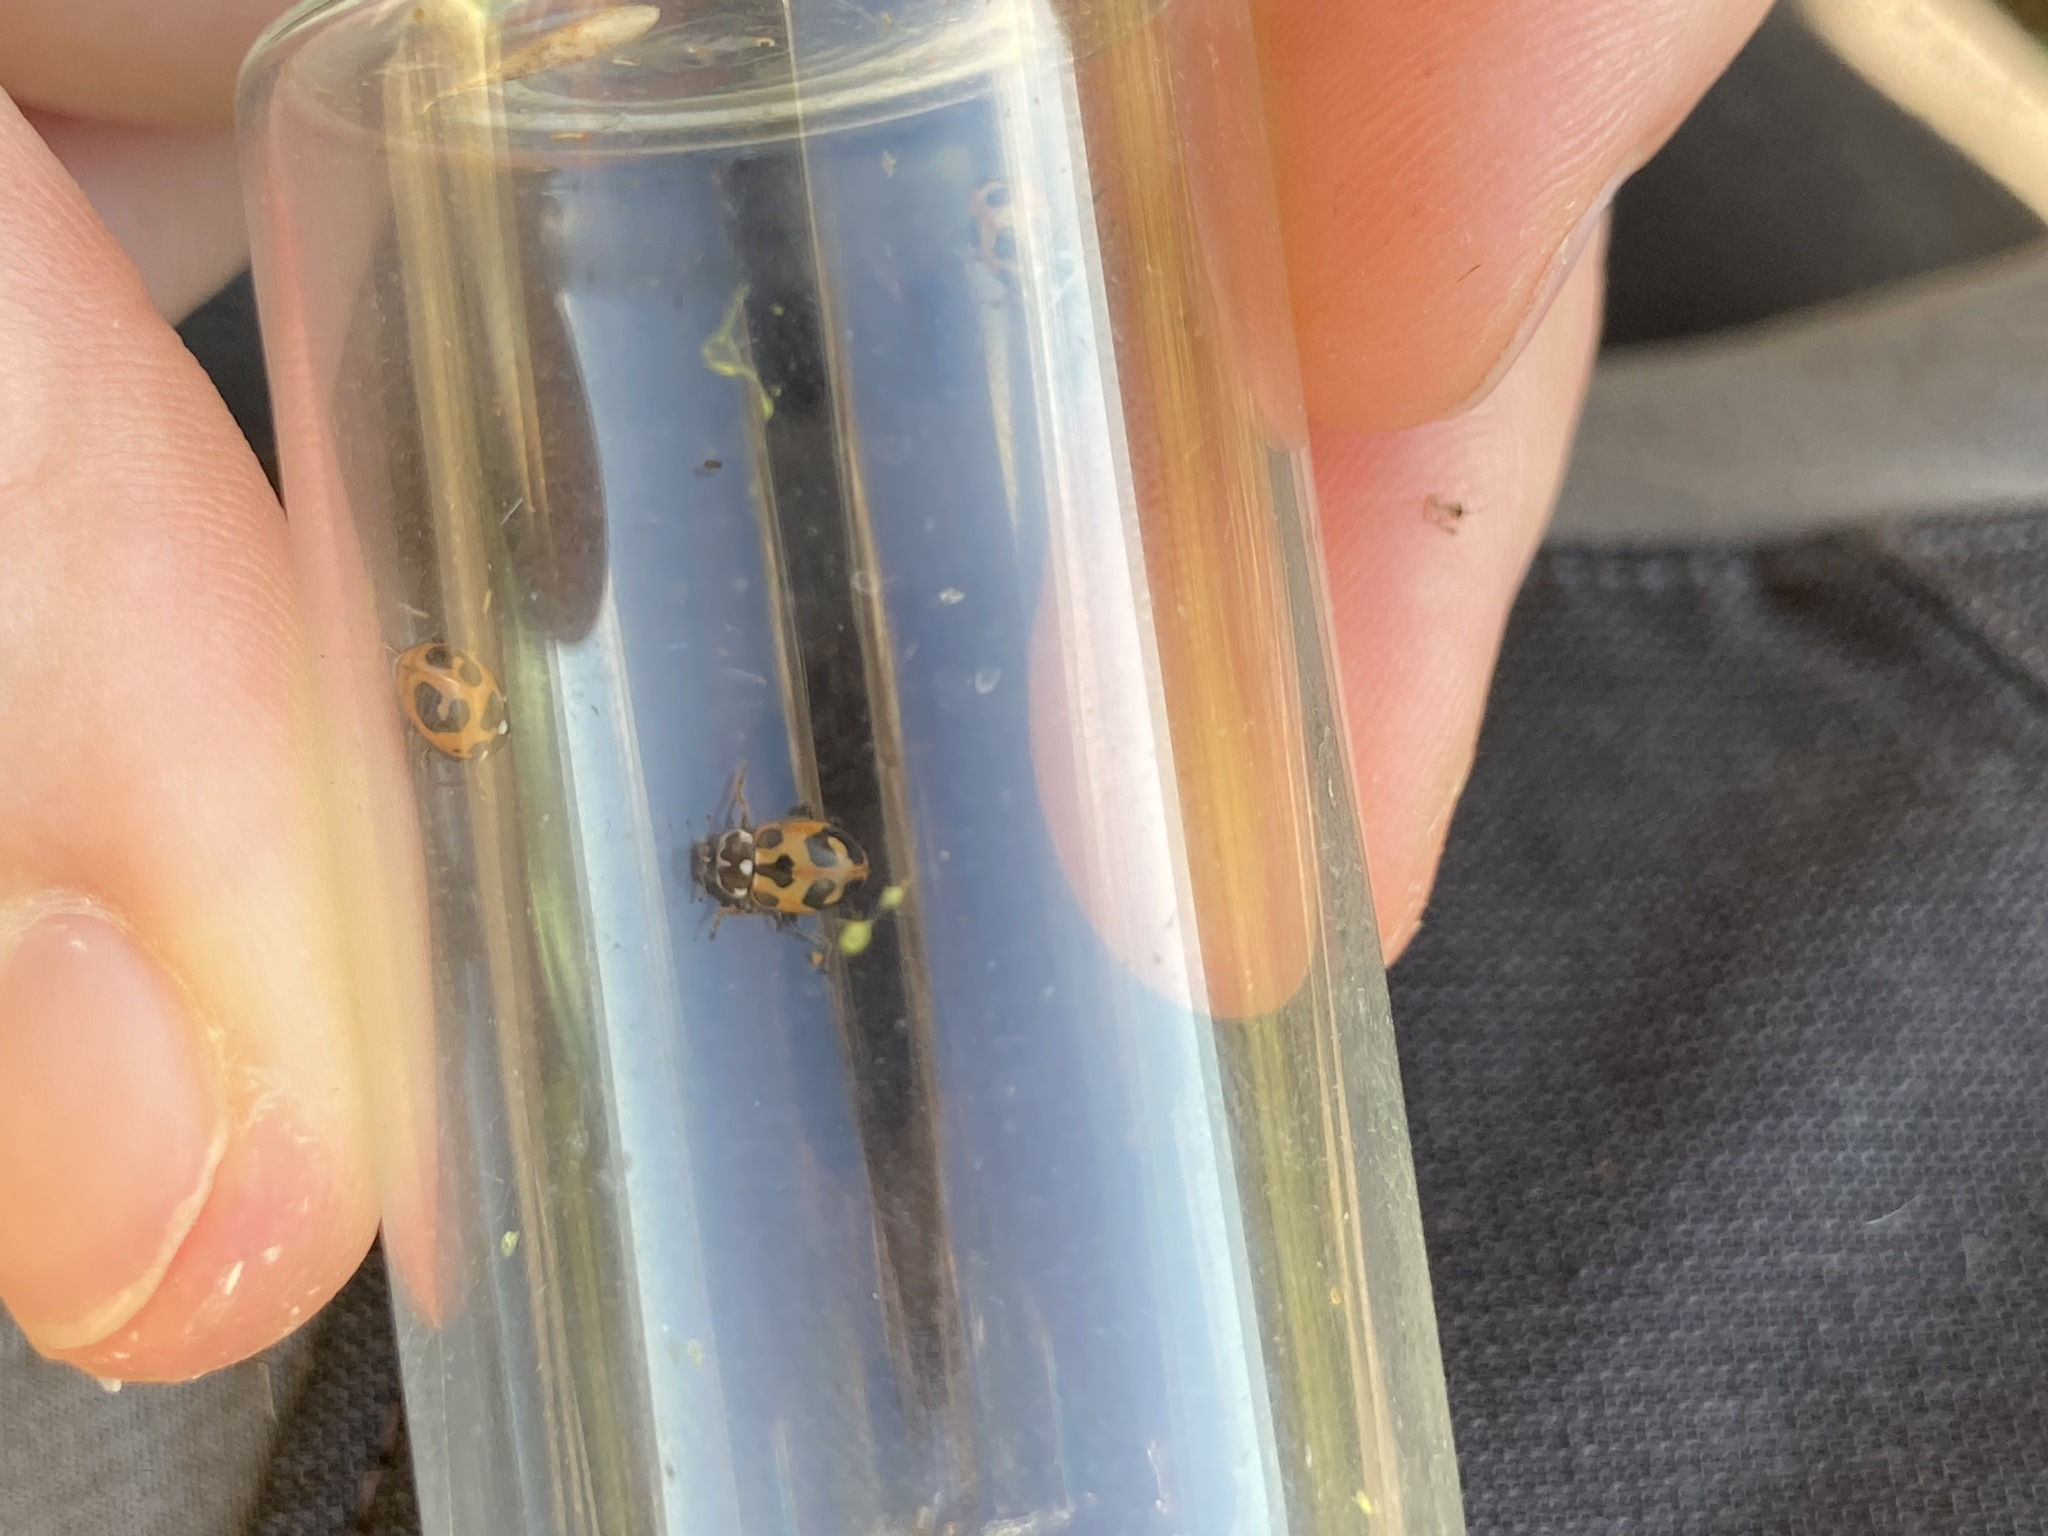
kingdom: Animalia
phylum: Arthropoda
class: Insecta
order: Coleoptera
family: Coccinellidae
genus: Hippodamia
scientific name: Hippodamia parenthesis
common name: Parenthesis lady beetle
